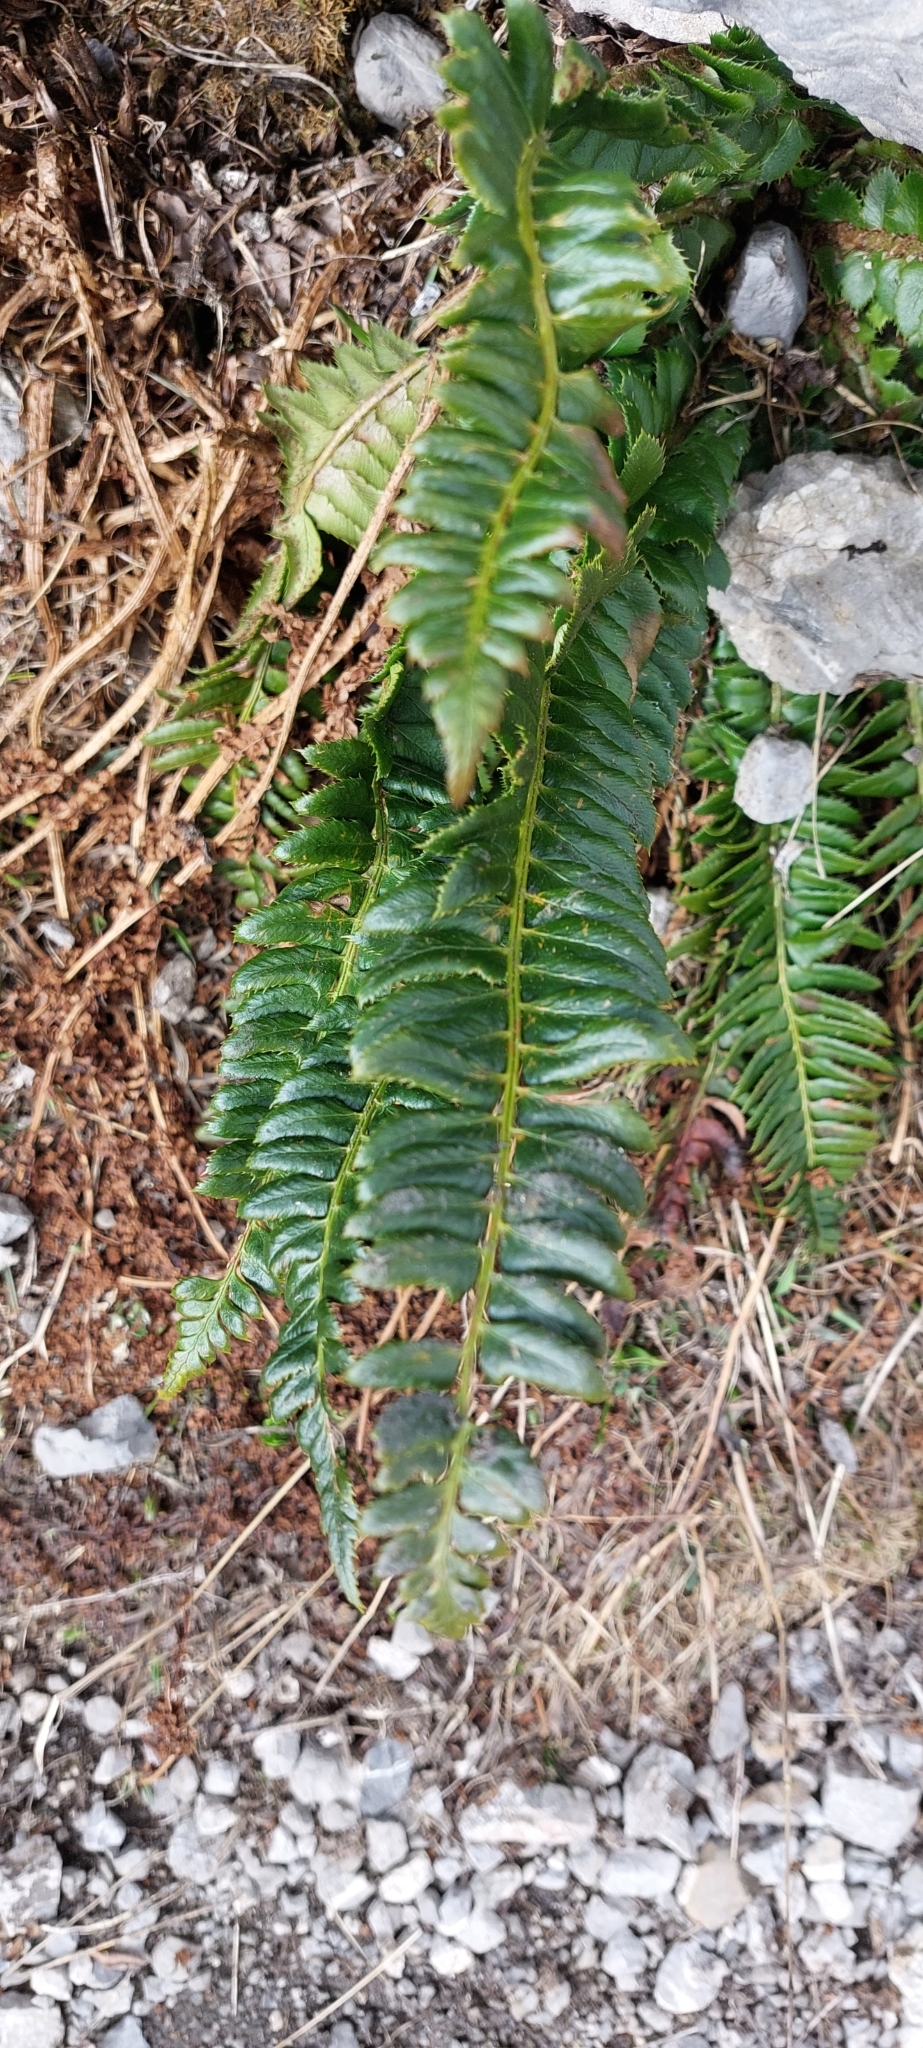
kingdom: Plantae
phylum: Tracheophyta
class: Polypodiopsida
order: Polypodiales
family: Dryopteridaceae
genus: Polystichum
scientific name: Polystichum lonchitis
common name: Holly fern
